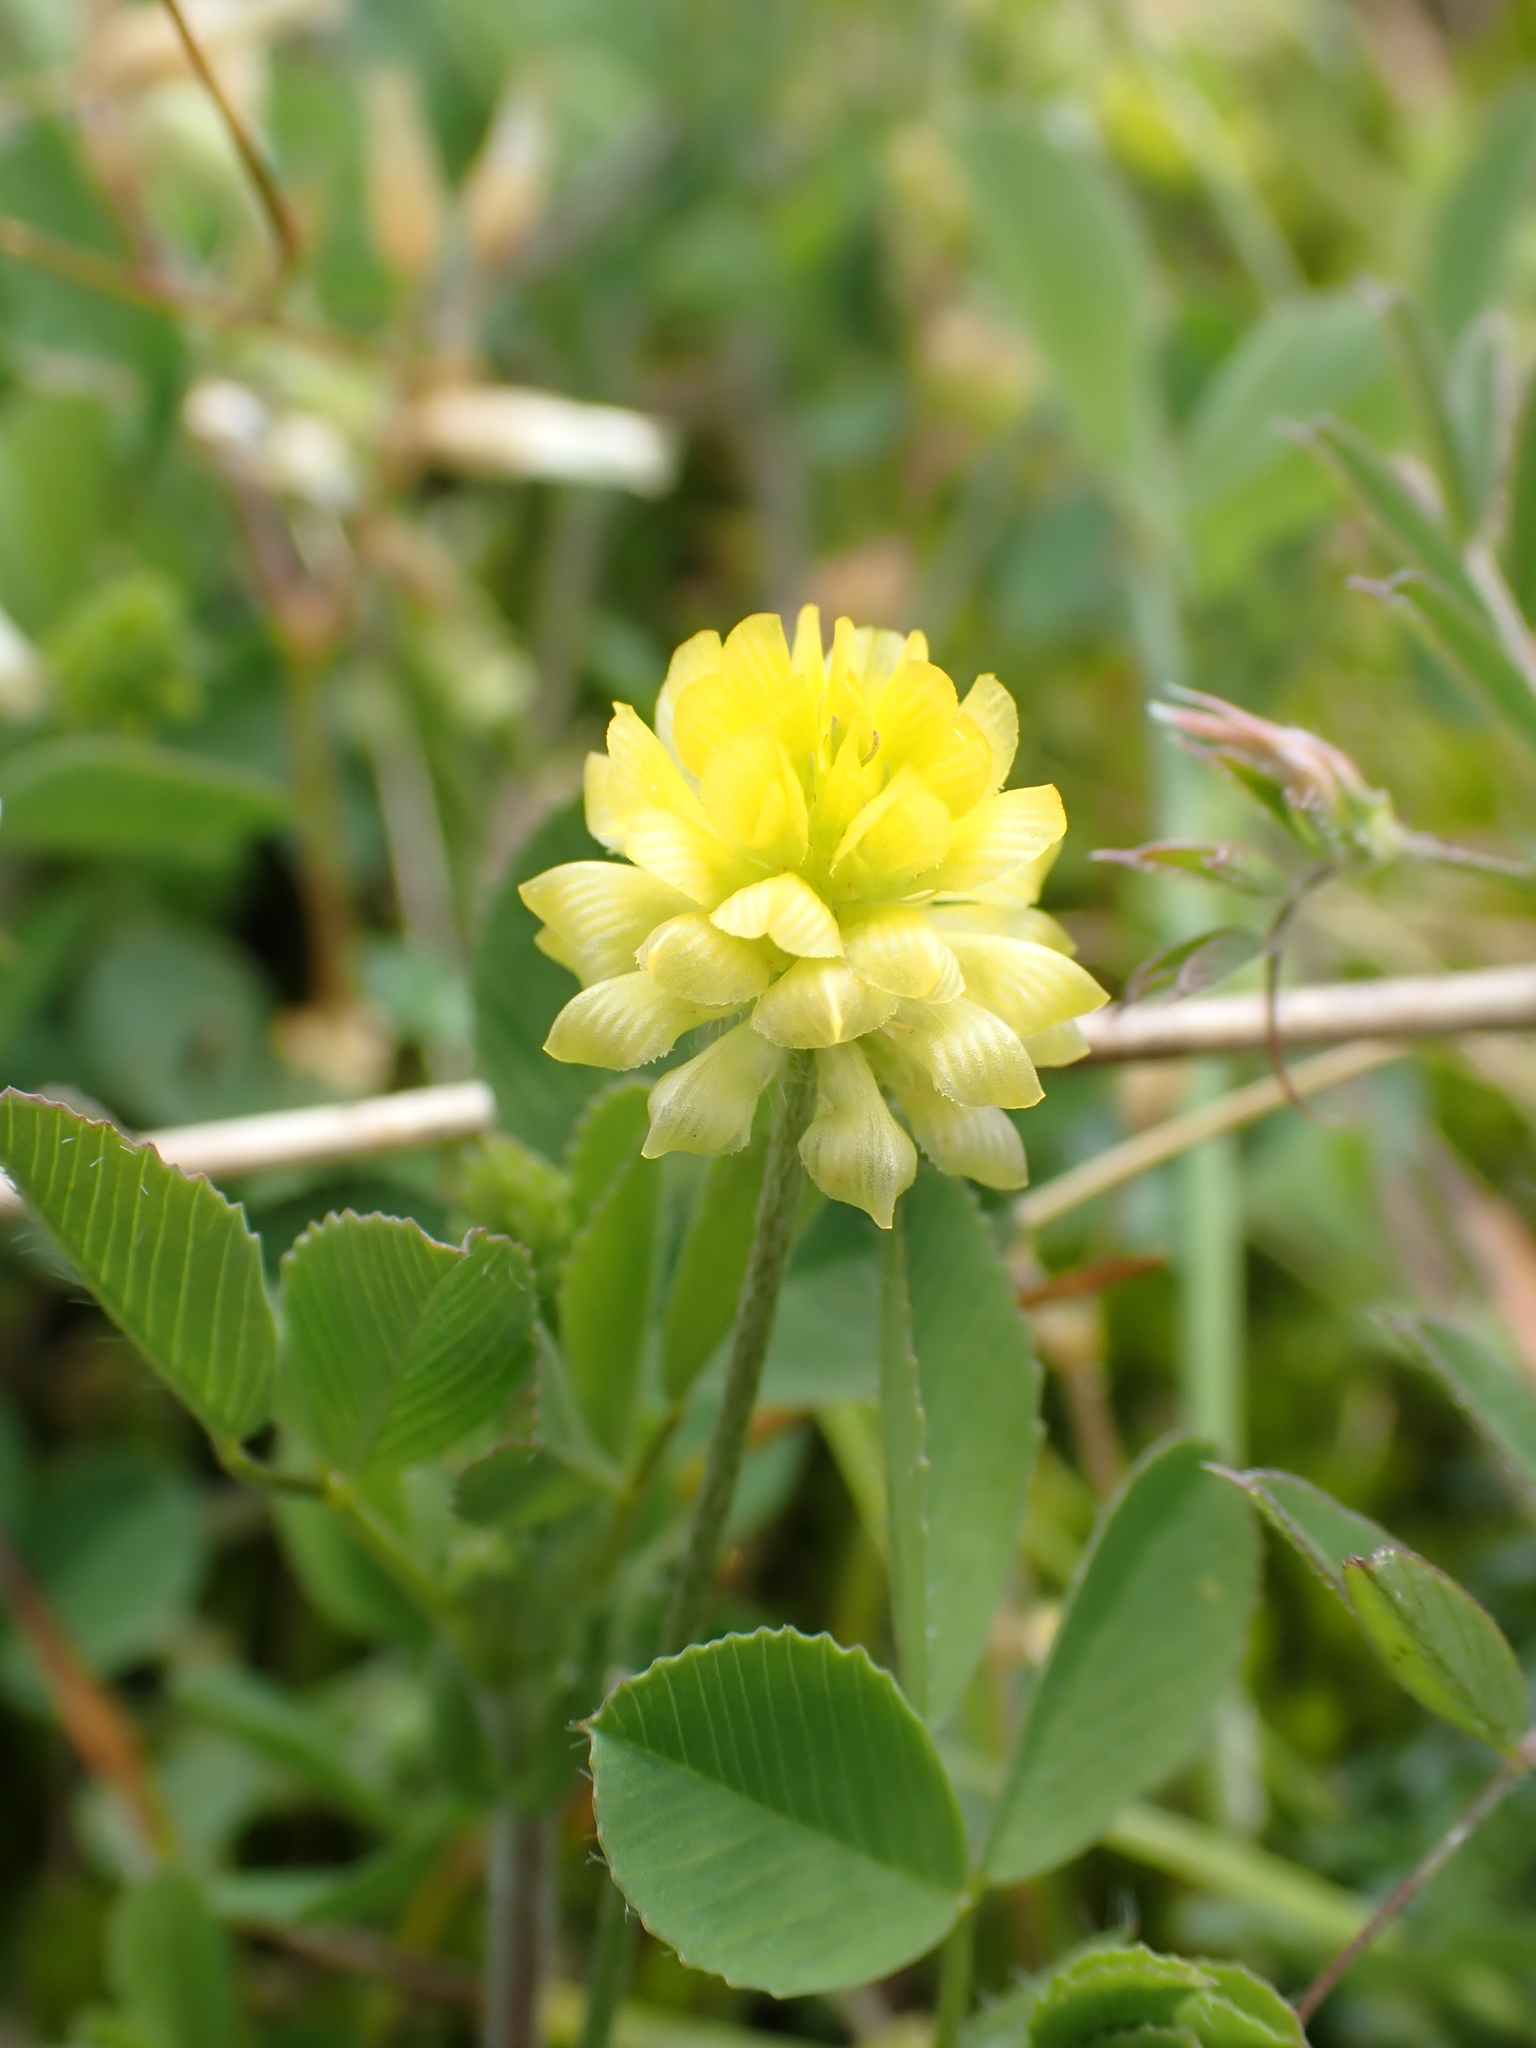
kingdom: Plantae
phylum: Tracheophyta
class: Magnoliopsida
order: Fabales
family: Fabaceae
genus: Trifolium
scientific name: Trifolium campestre
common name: Field clover
